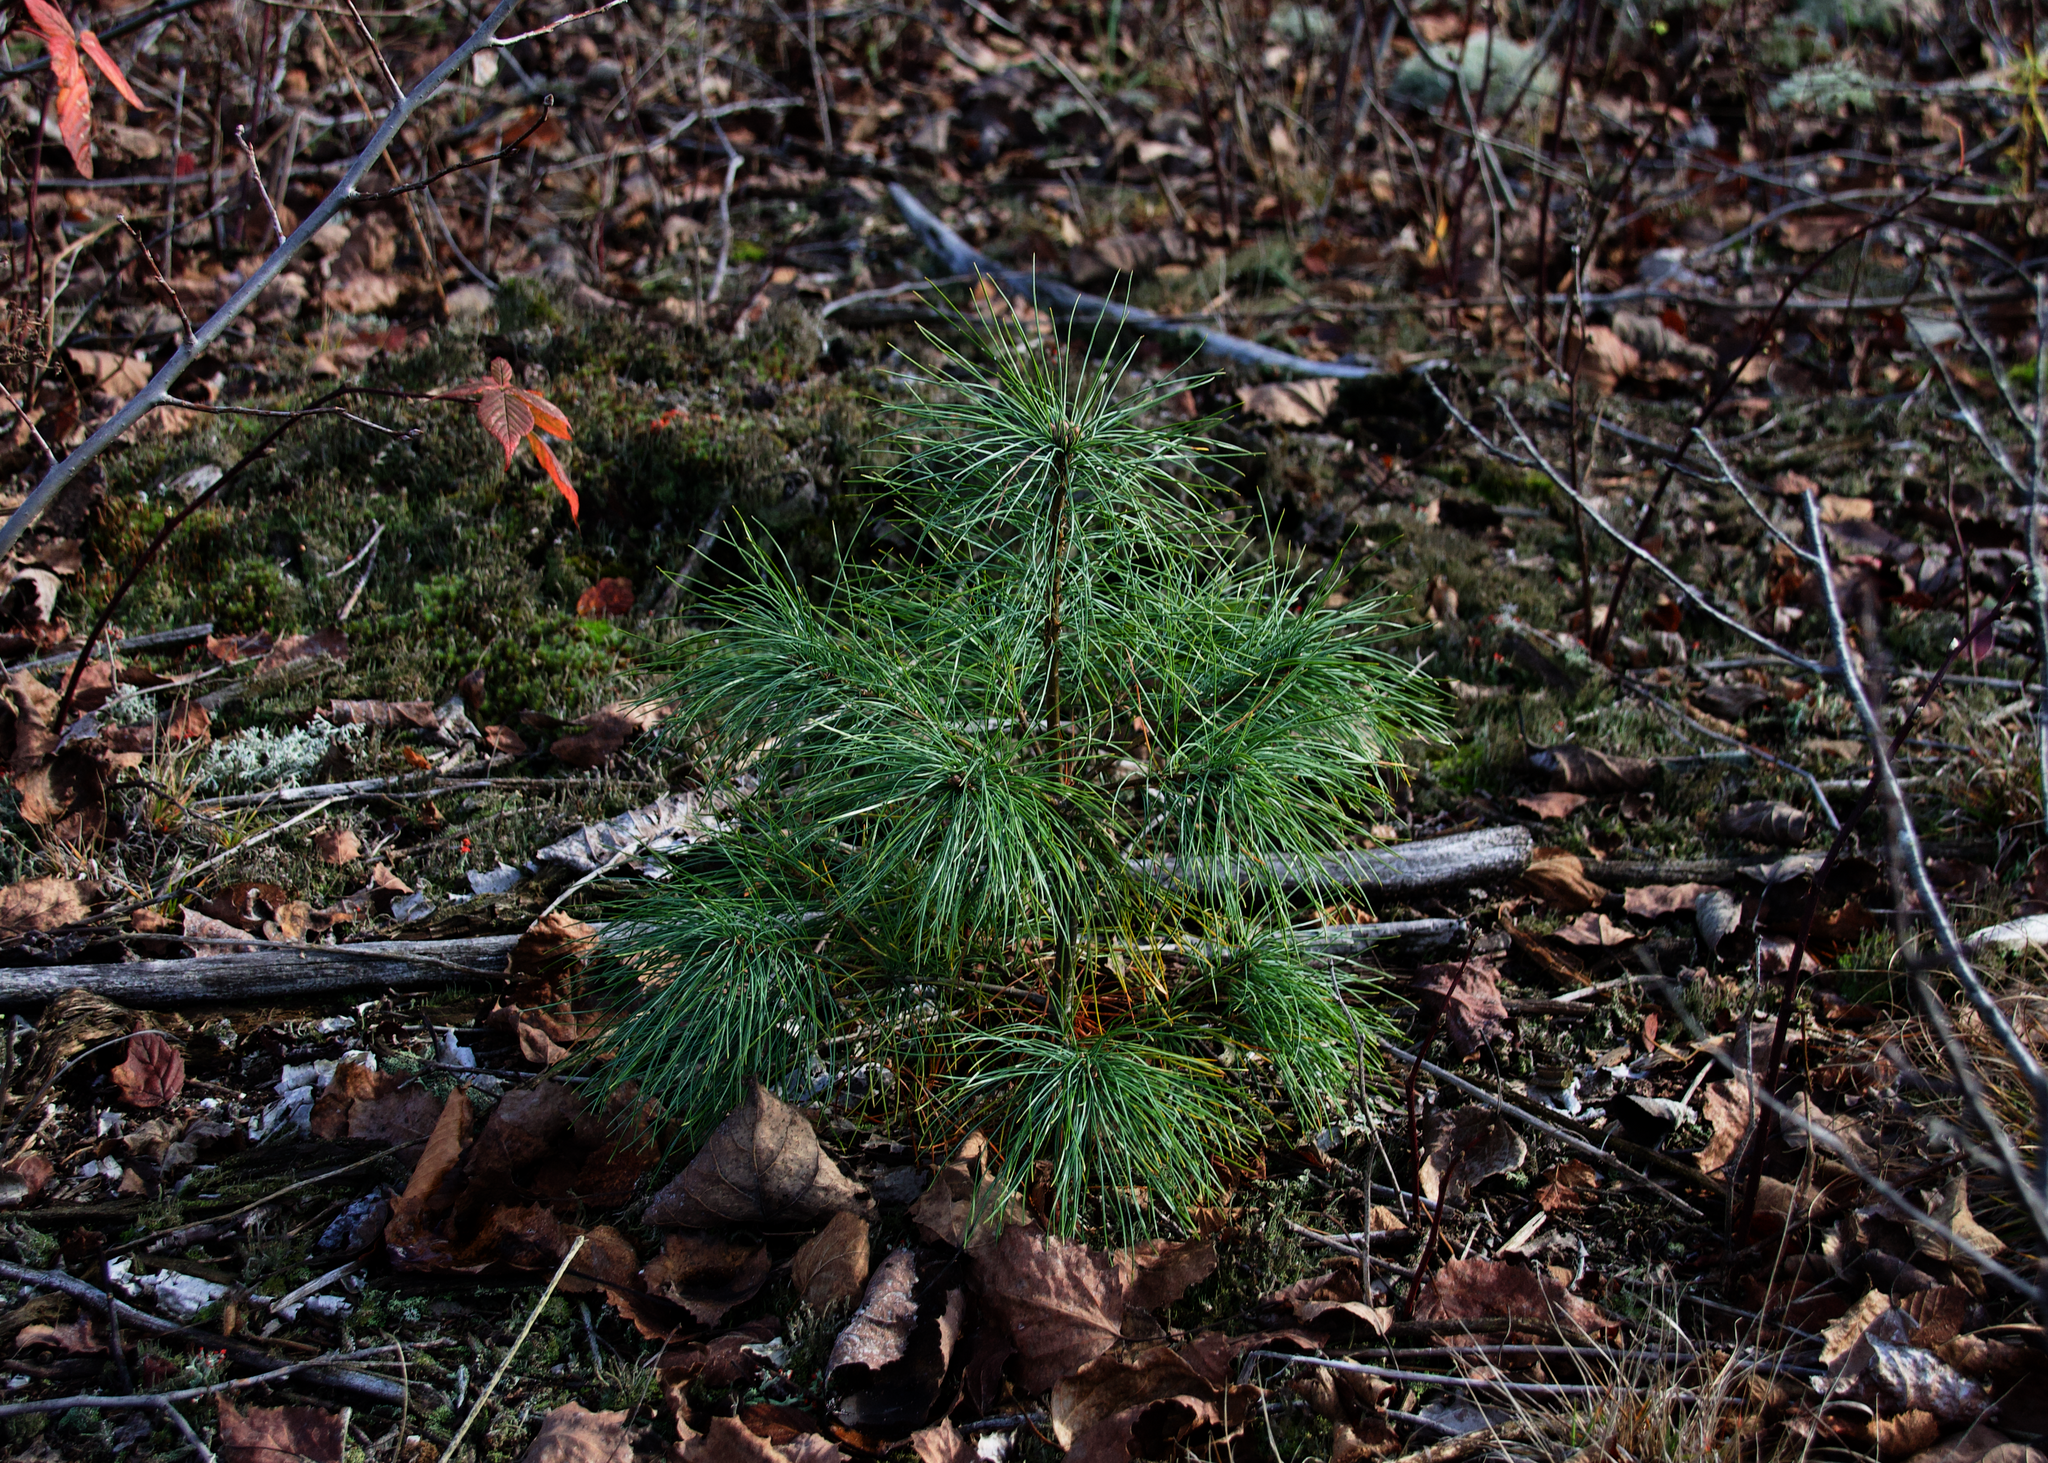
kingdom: Plantae
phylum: Tracheophyta
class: Pinopsida
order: Pinales
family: Pinaceae
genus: Pinus
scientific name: Pinus strobus
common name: Weymouth pine
